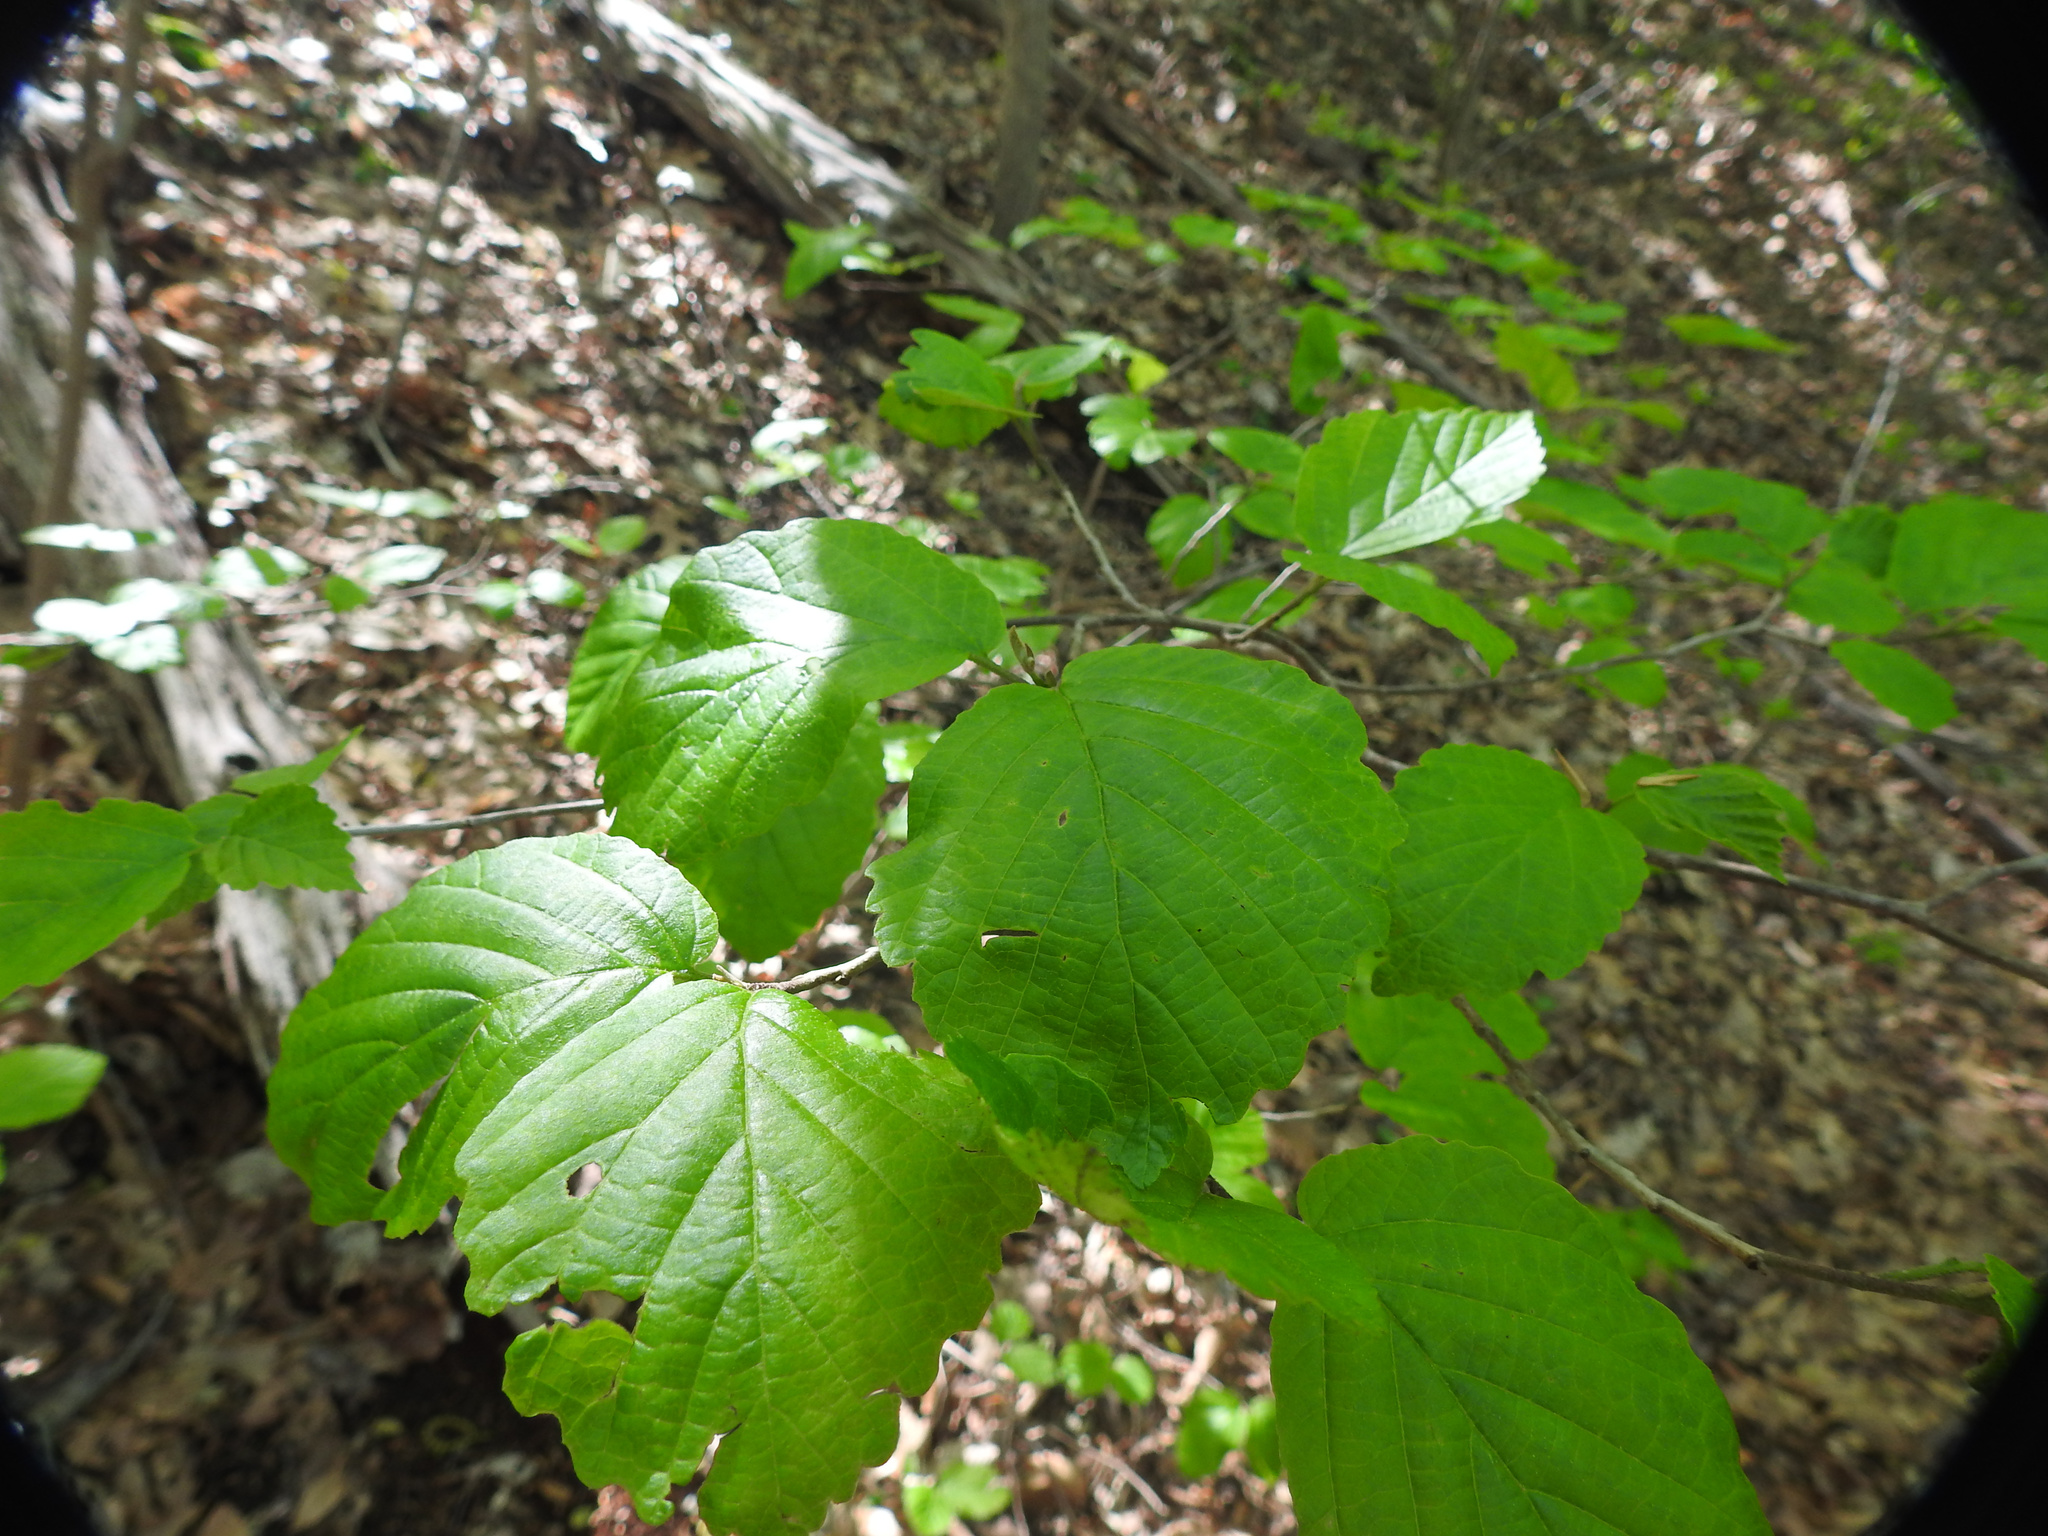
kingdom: Plantae
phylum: Tracheophyta
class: Magnoliopsida
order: Saxifragales
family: Hamamelidaceae
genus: Hamamelis
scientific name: Hamamelis virginiana
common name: Witch-hazel
